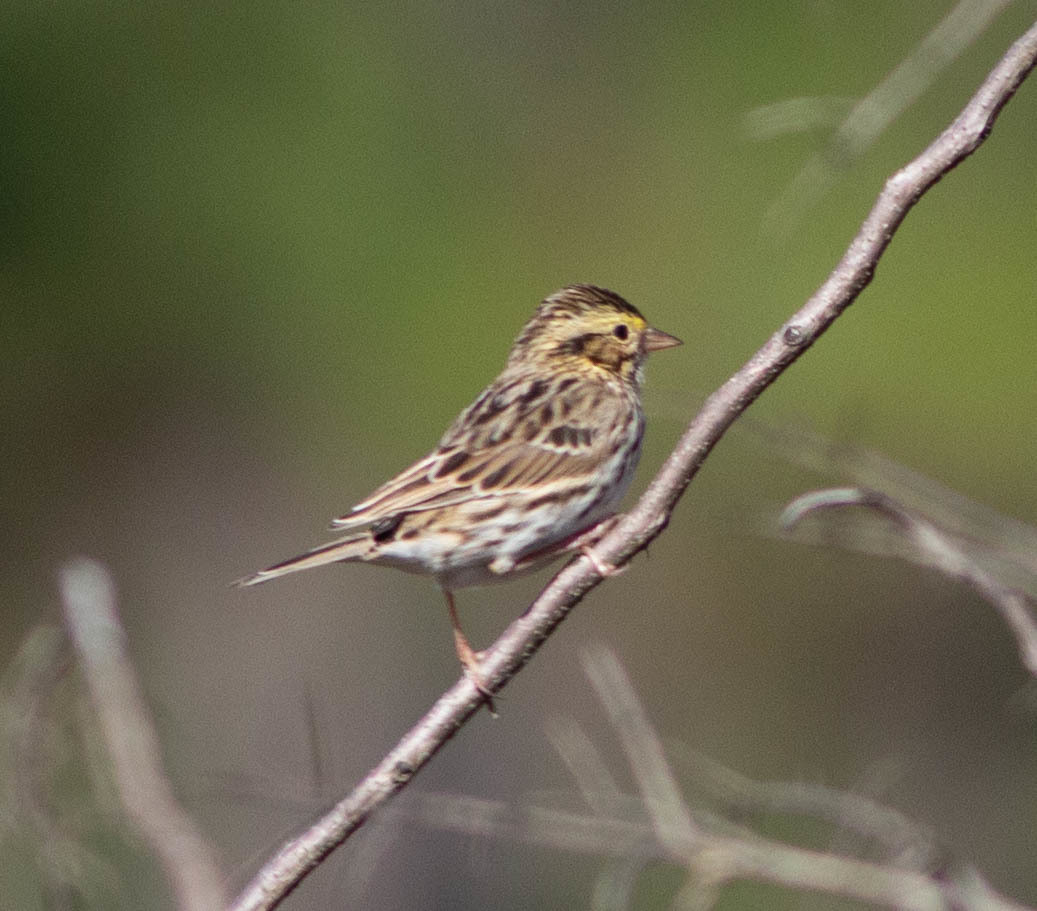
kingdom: Animalia
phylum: Chordata
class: Aves
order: Passeriformes
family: Passerellidae
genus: Passerculus
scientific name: Passerculus sandwichensis
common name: Savannah sparrow
